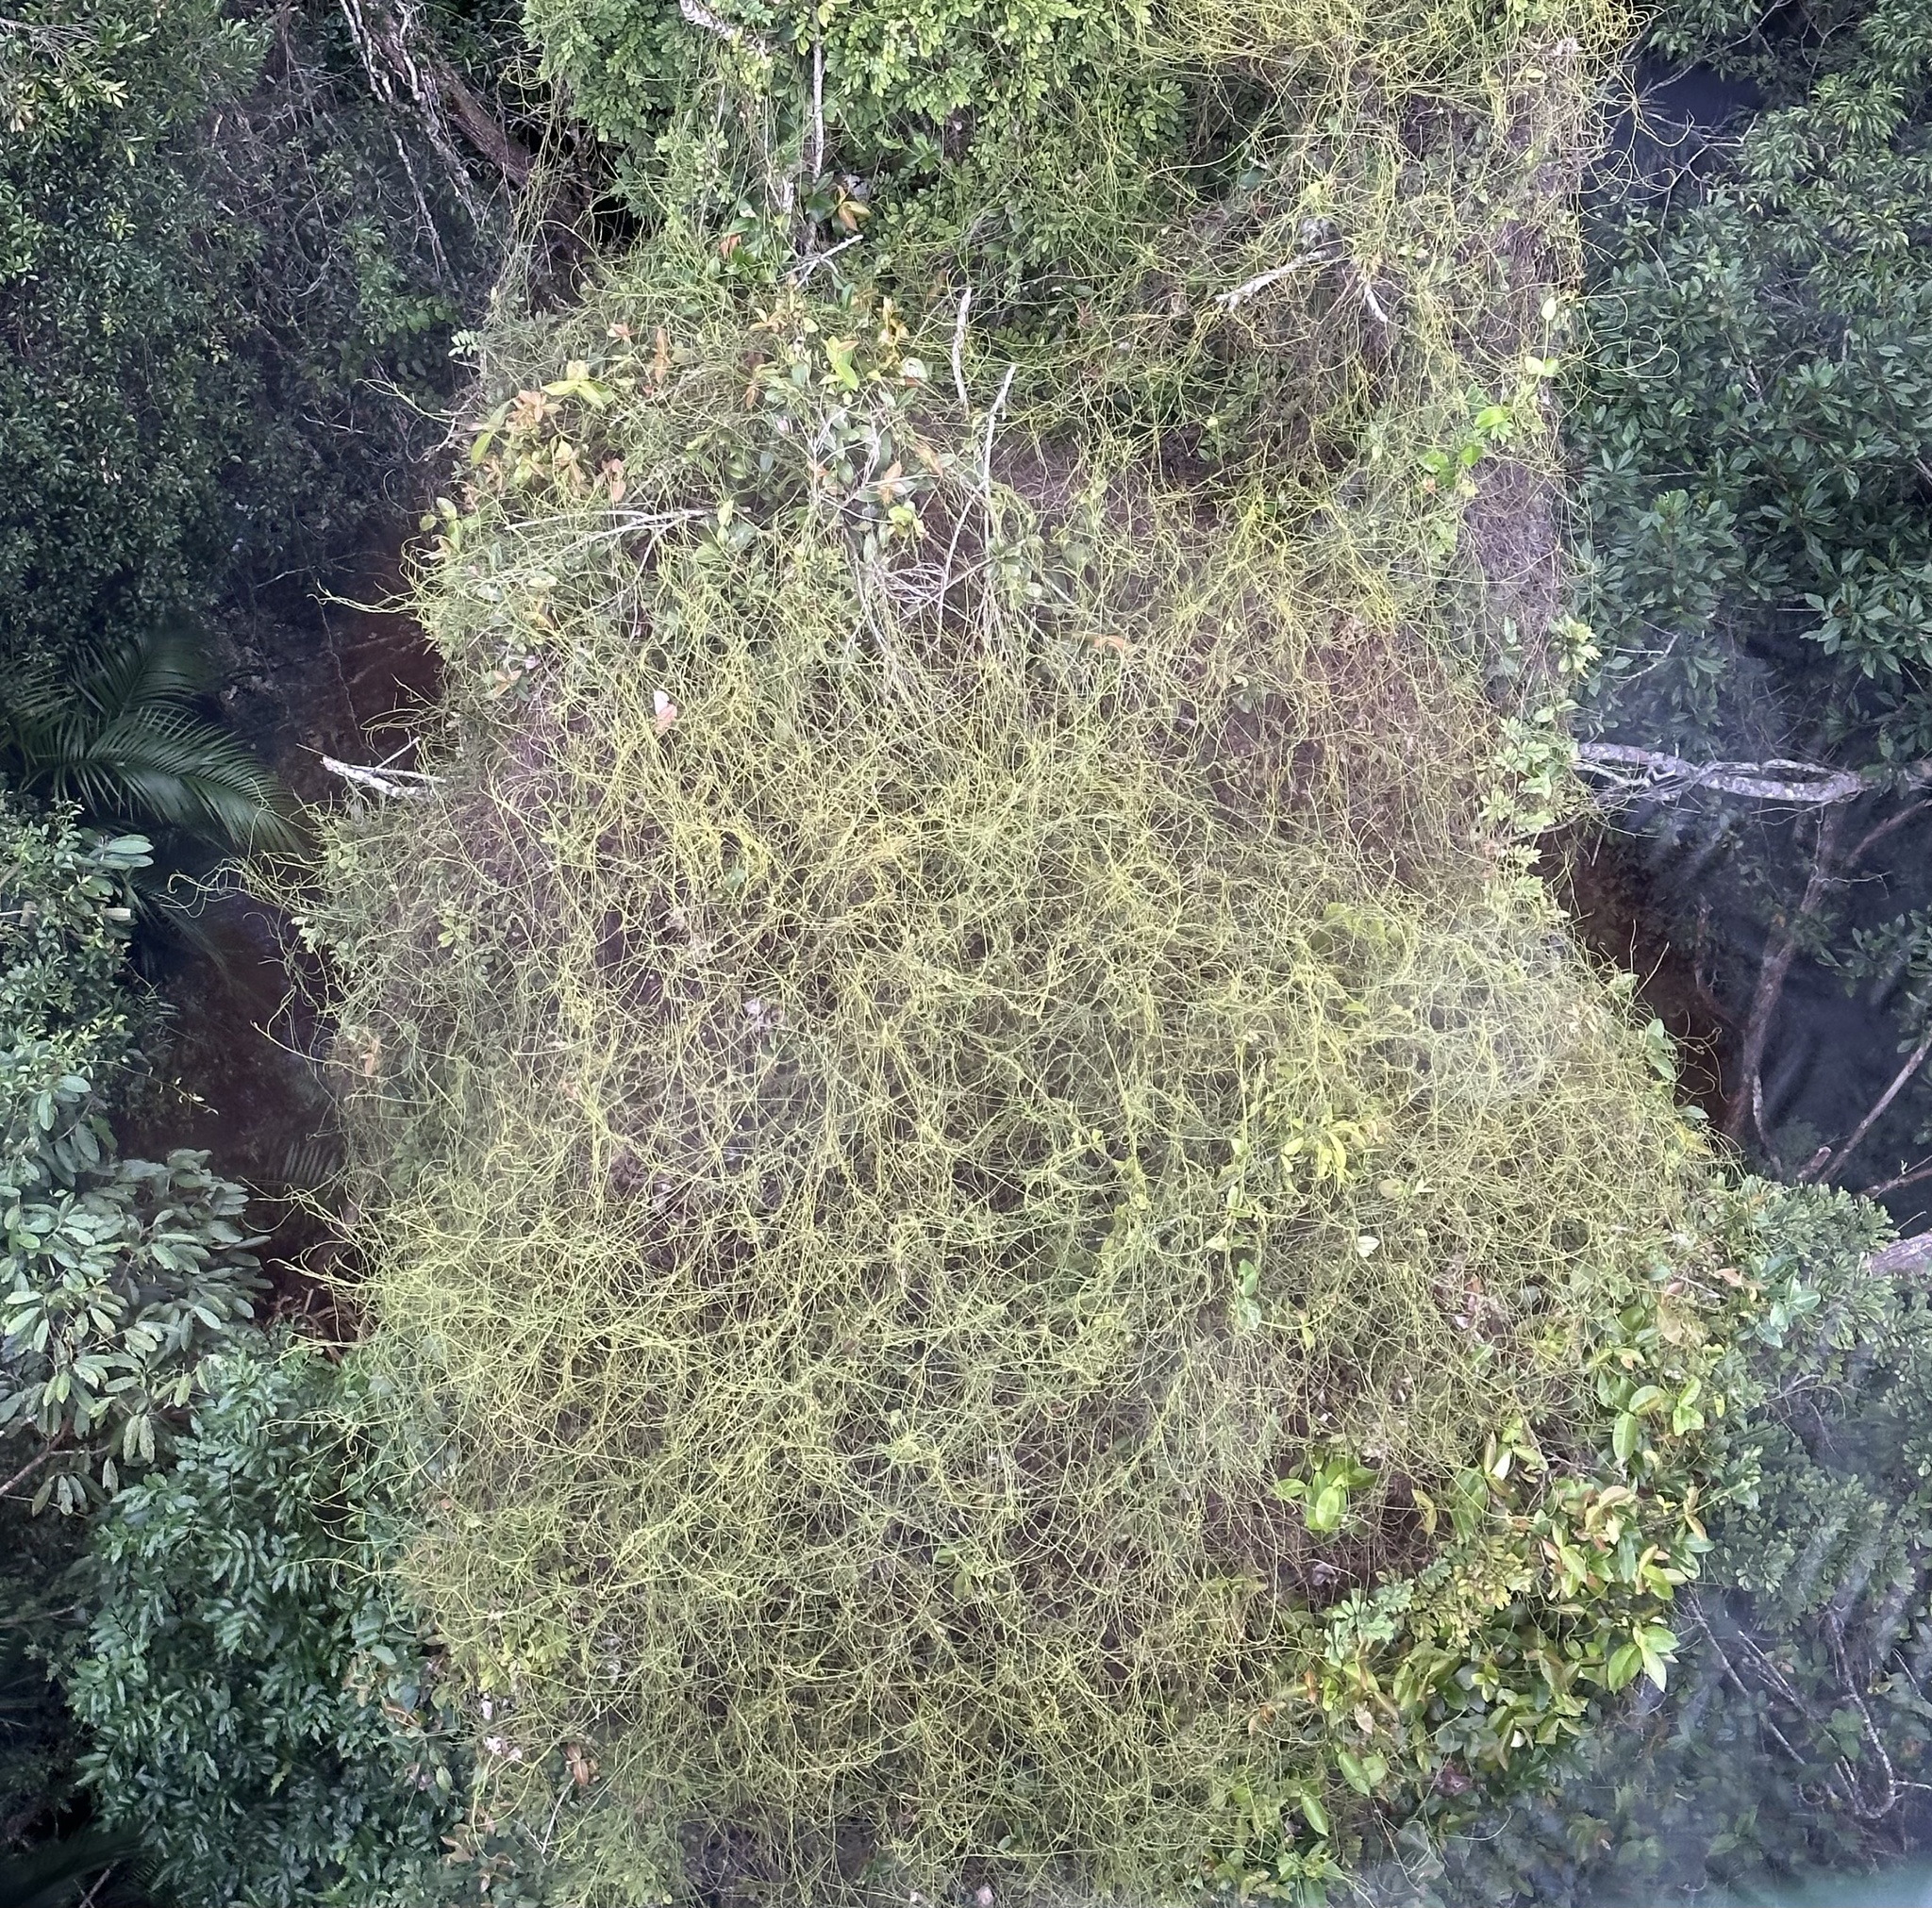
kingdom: Plantae
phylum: Tracheophyta
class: Magnoliopsida
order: Laurales
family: Lauraceae
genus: Cassytha
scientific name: Cassytha filiformis
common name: Dodder-laurel
